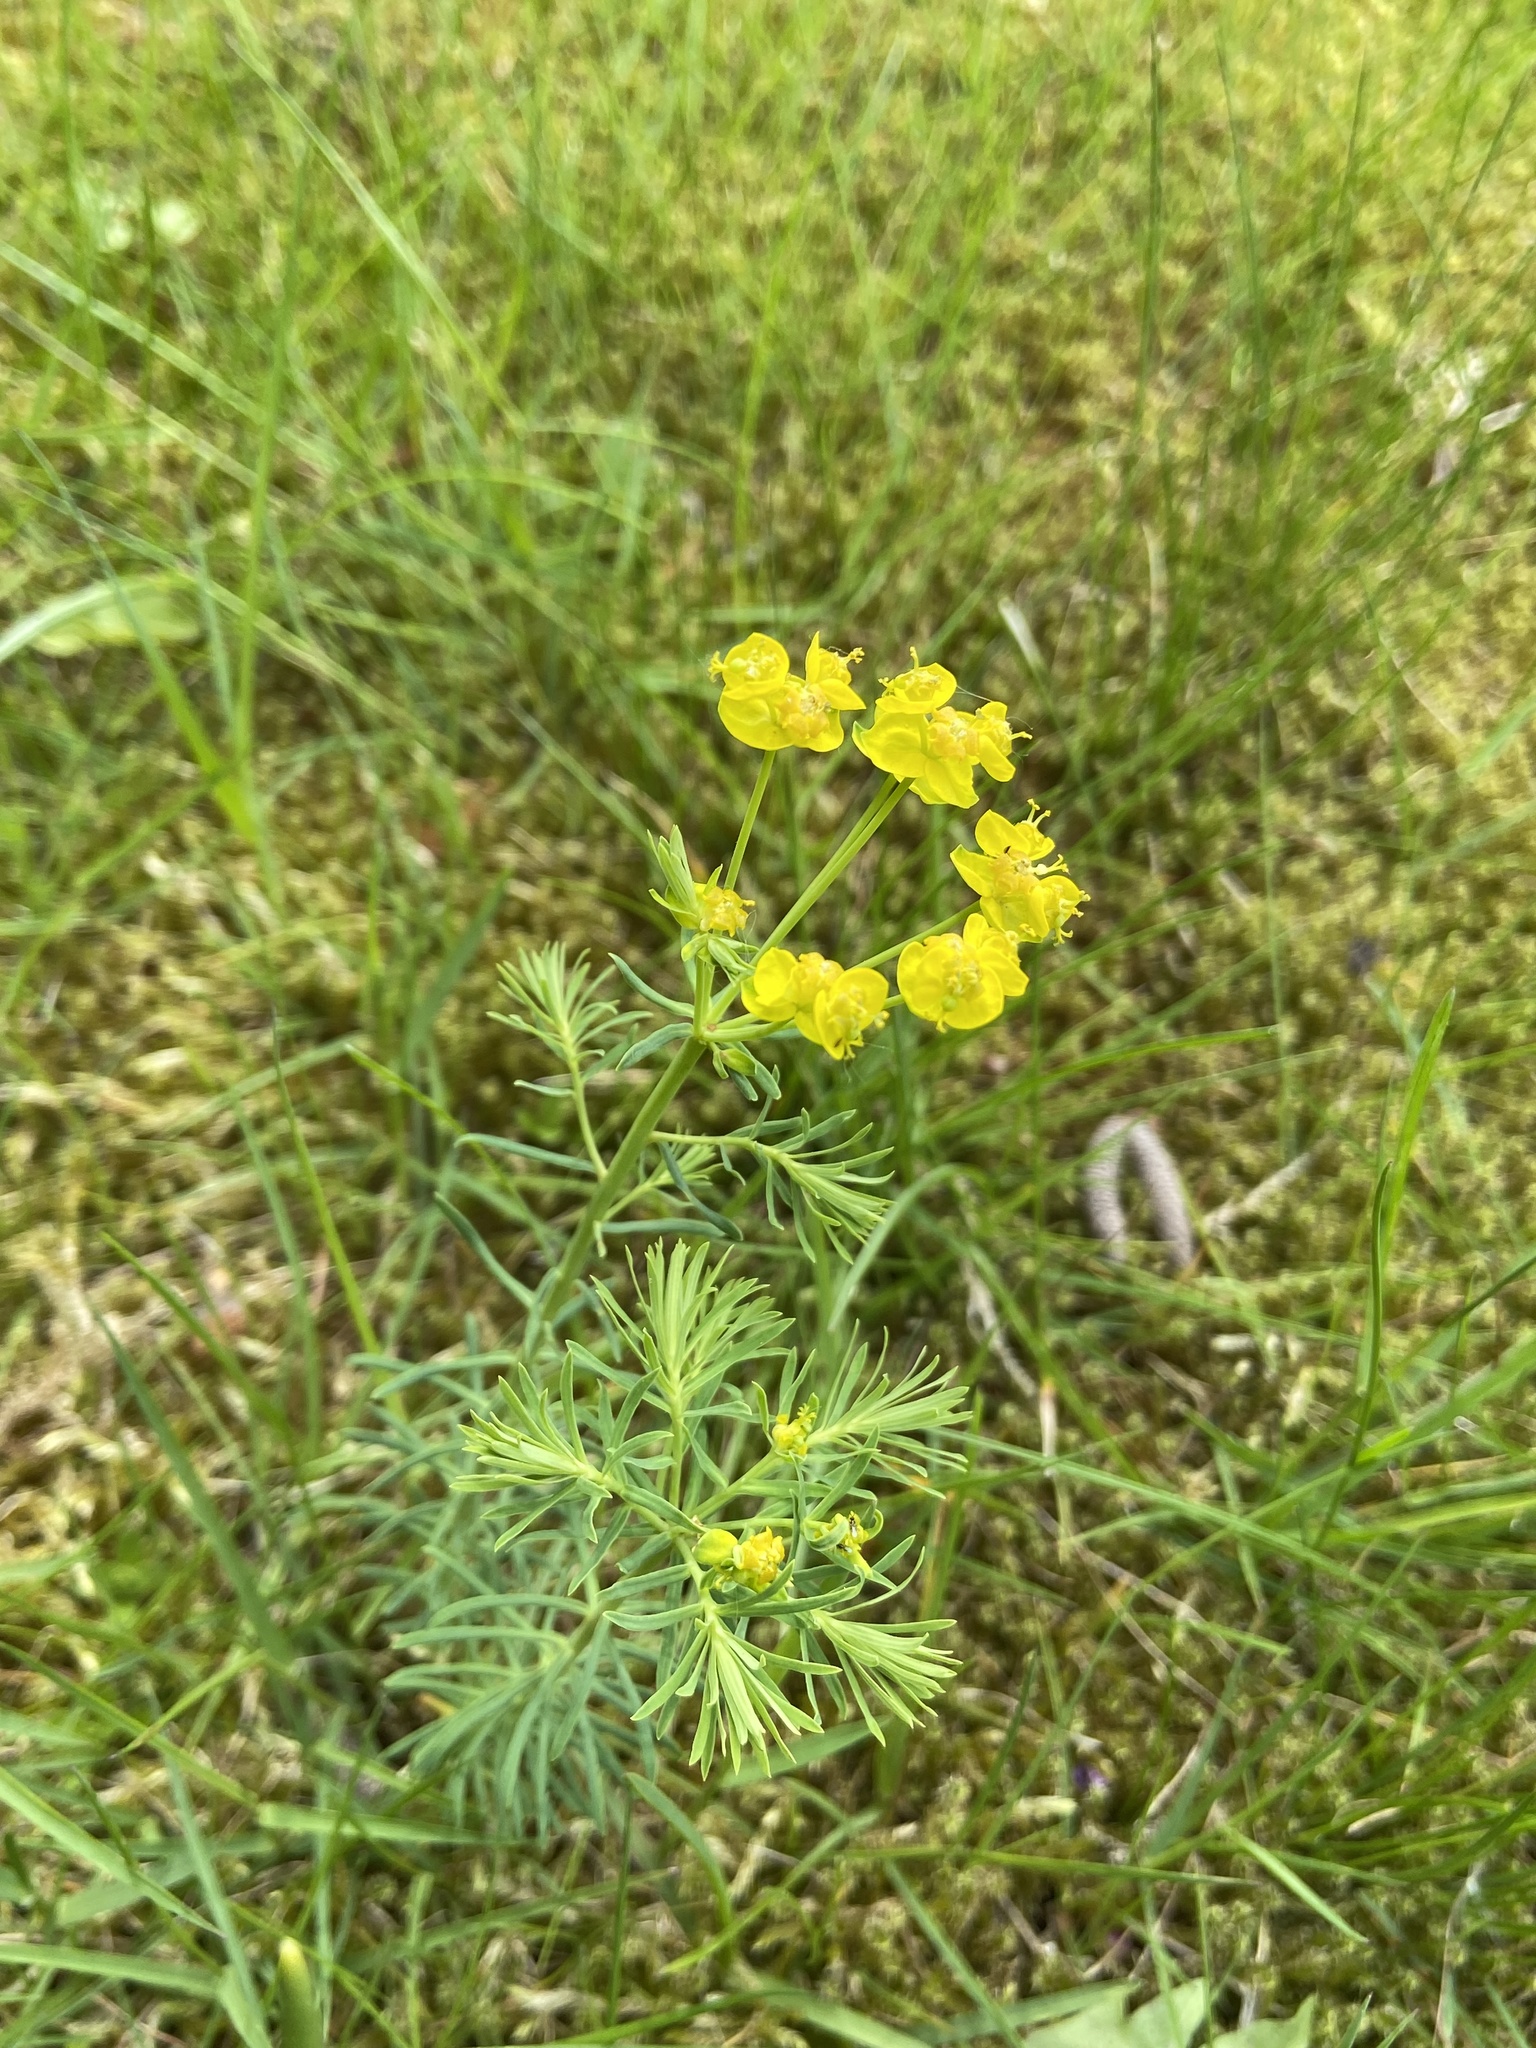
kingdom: Plantae
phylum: Tracheophyta
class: Magnoliopsida
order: Malpighiales
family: Euphorbiaceae
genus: Euphorbia
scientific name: Euphorbia cyparissias
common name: Cypress spurge
